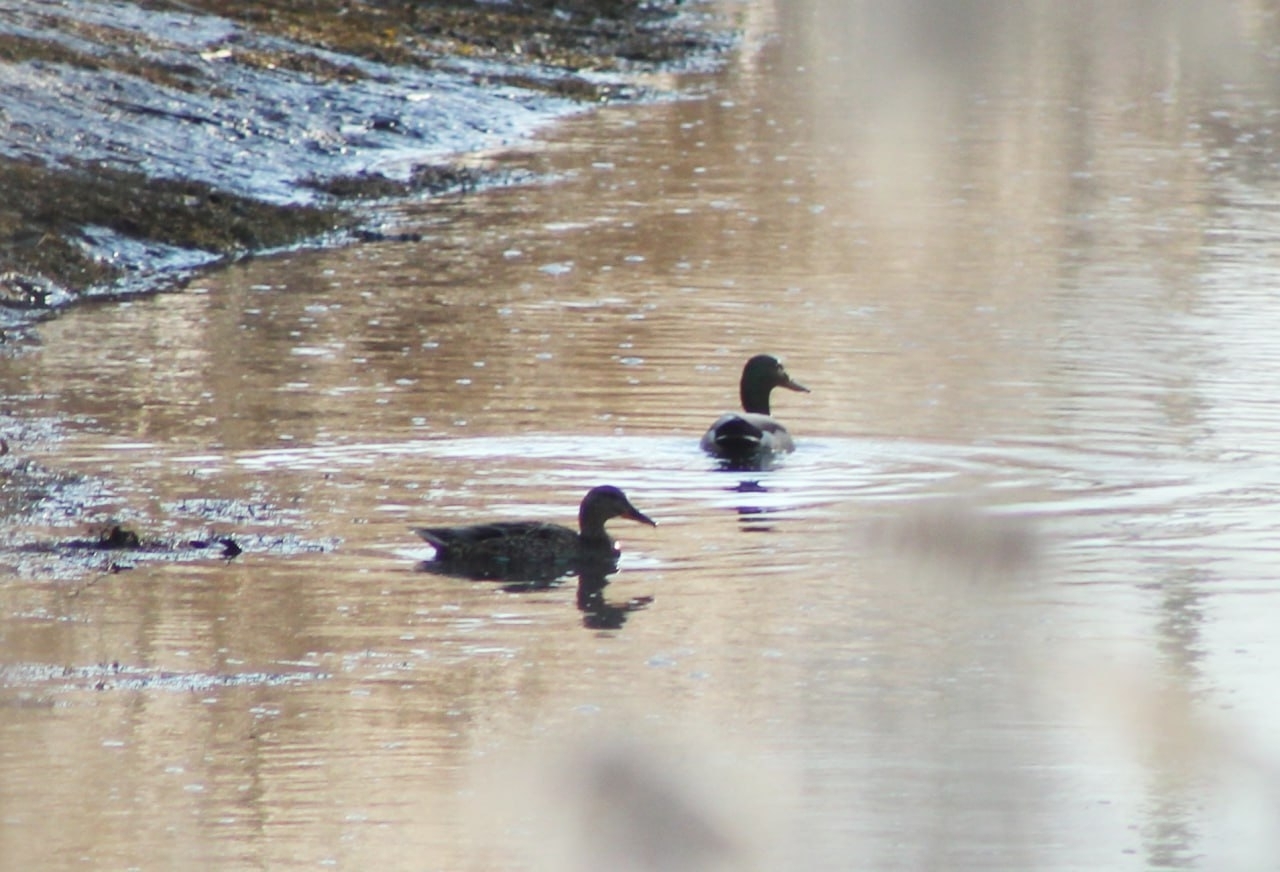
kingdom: Animalia
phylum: Chordata
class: Aves
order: Anseriformes
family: Anatidae
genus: Anas
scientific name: Anas platyrhynchos
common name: Mallard
